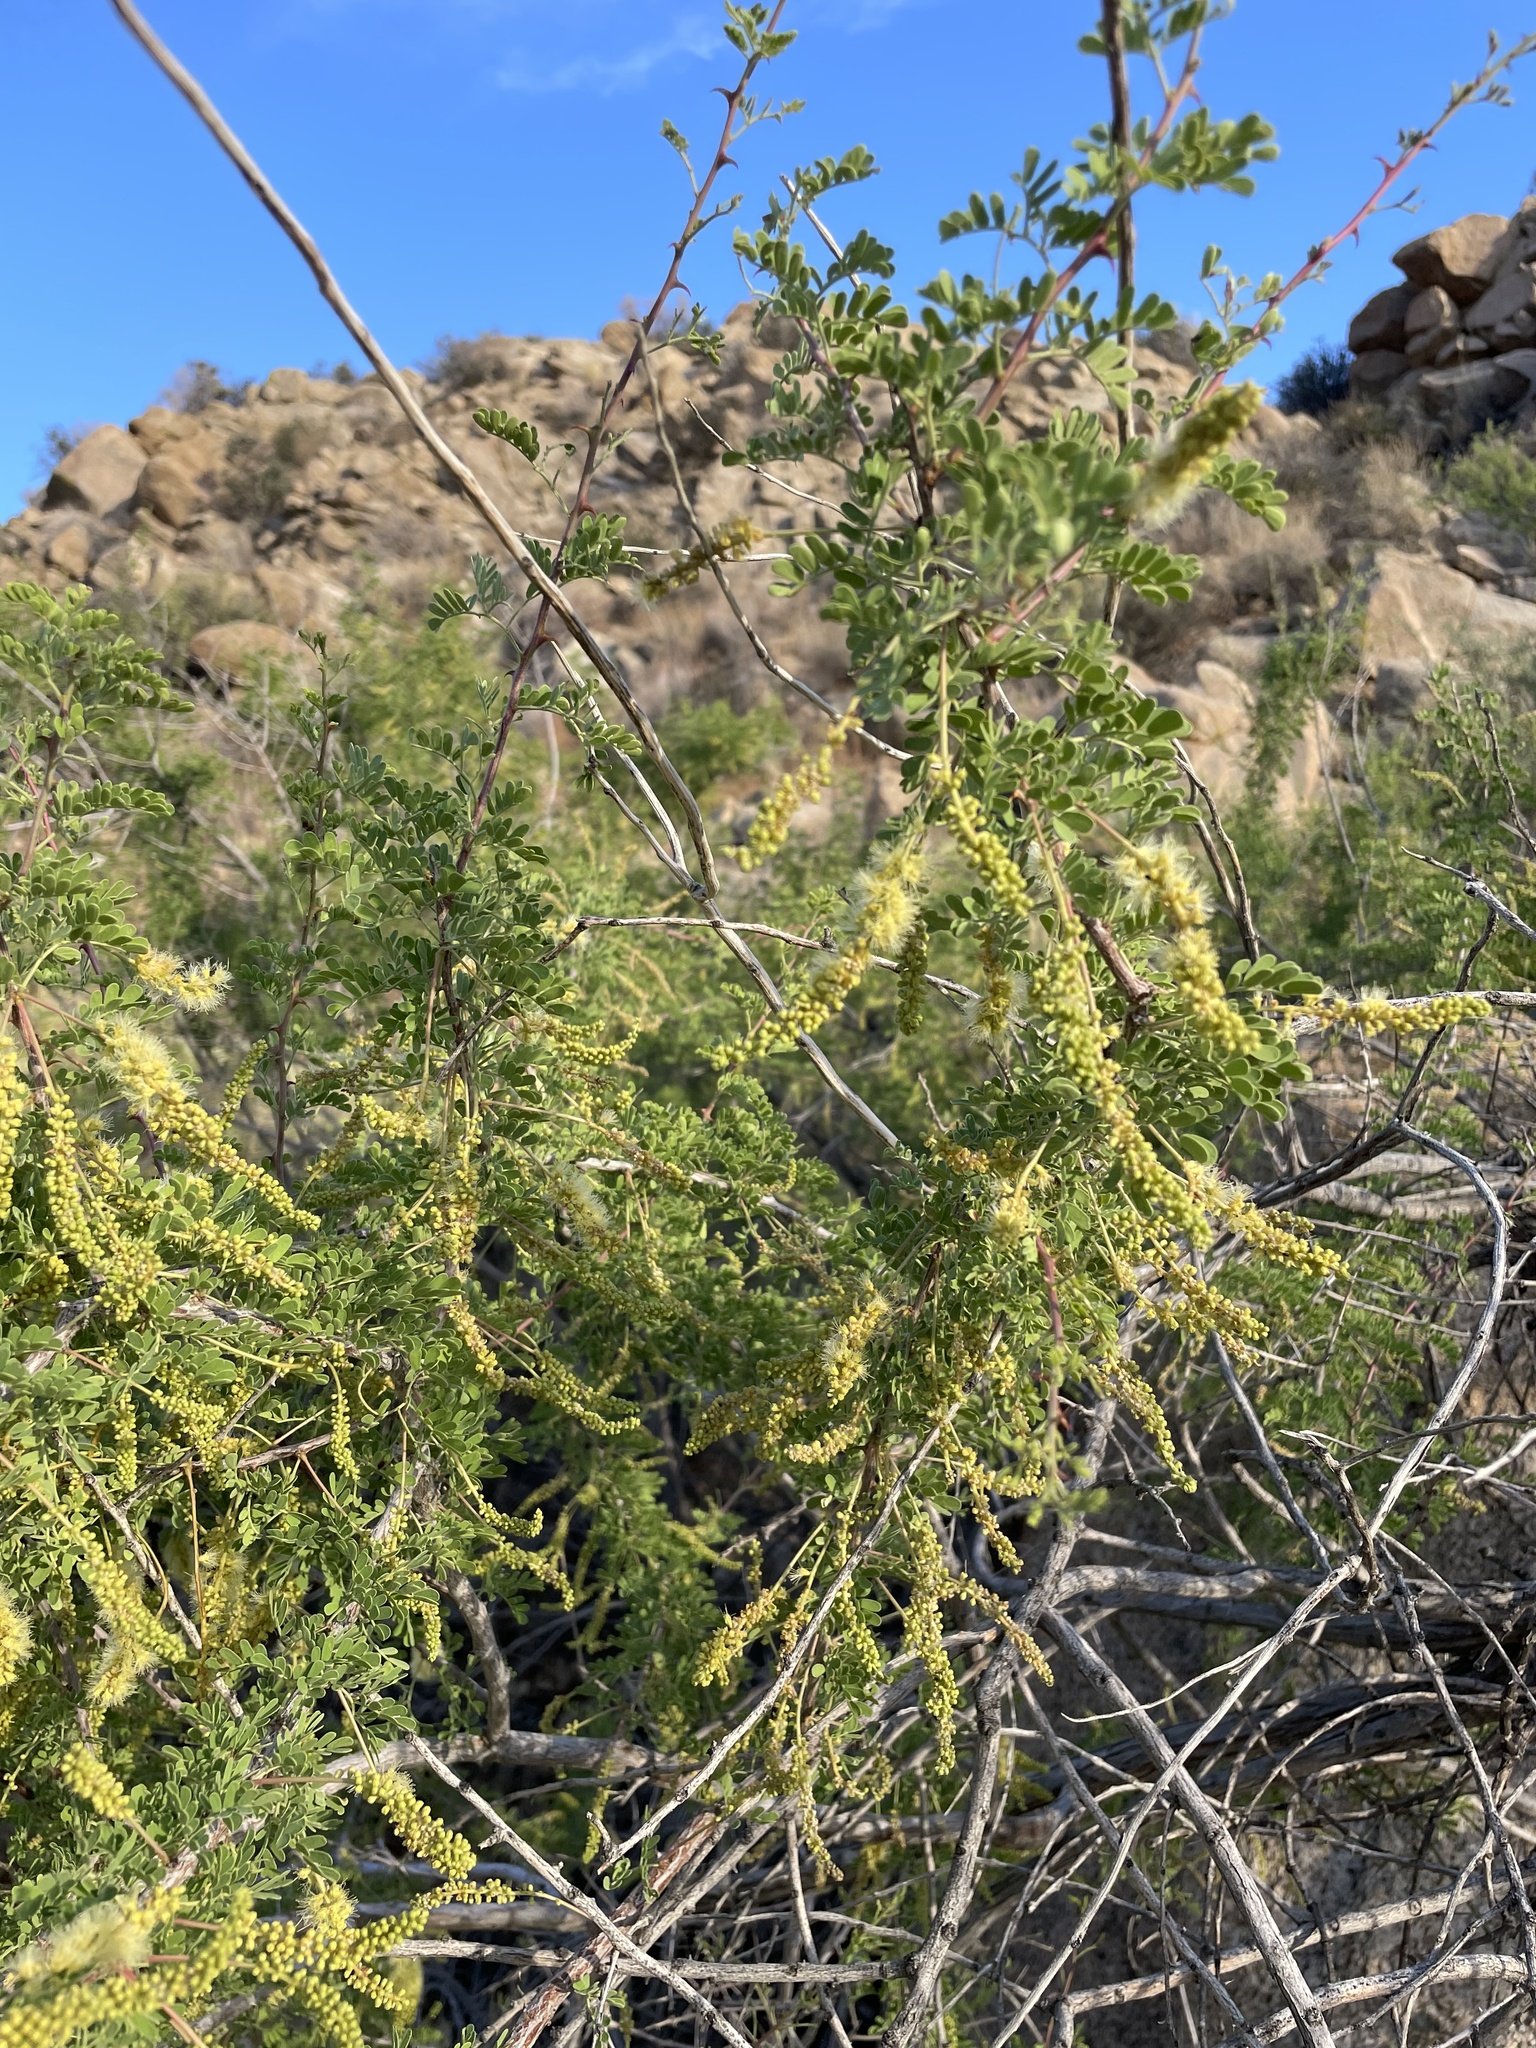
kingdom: Plantae
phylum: Tracheophyta
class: Magnoliopsida
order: Fabales
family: Fabaceae
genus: Senegalia
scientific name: Senegalia greggii
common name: Texas-mimosa
